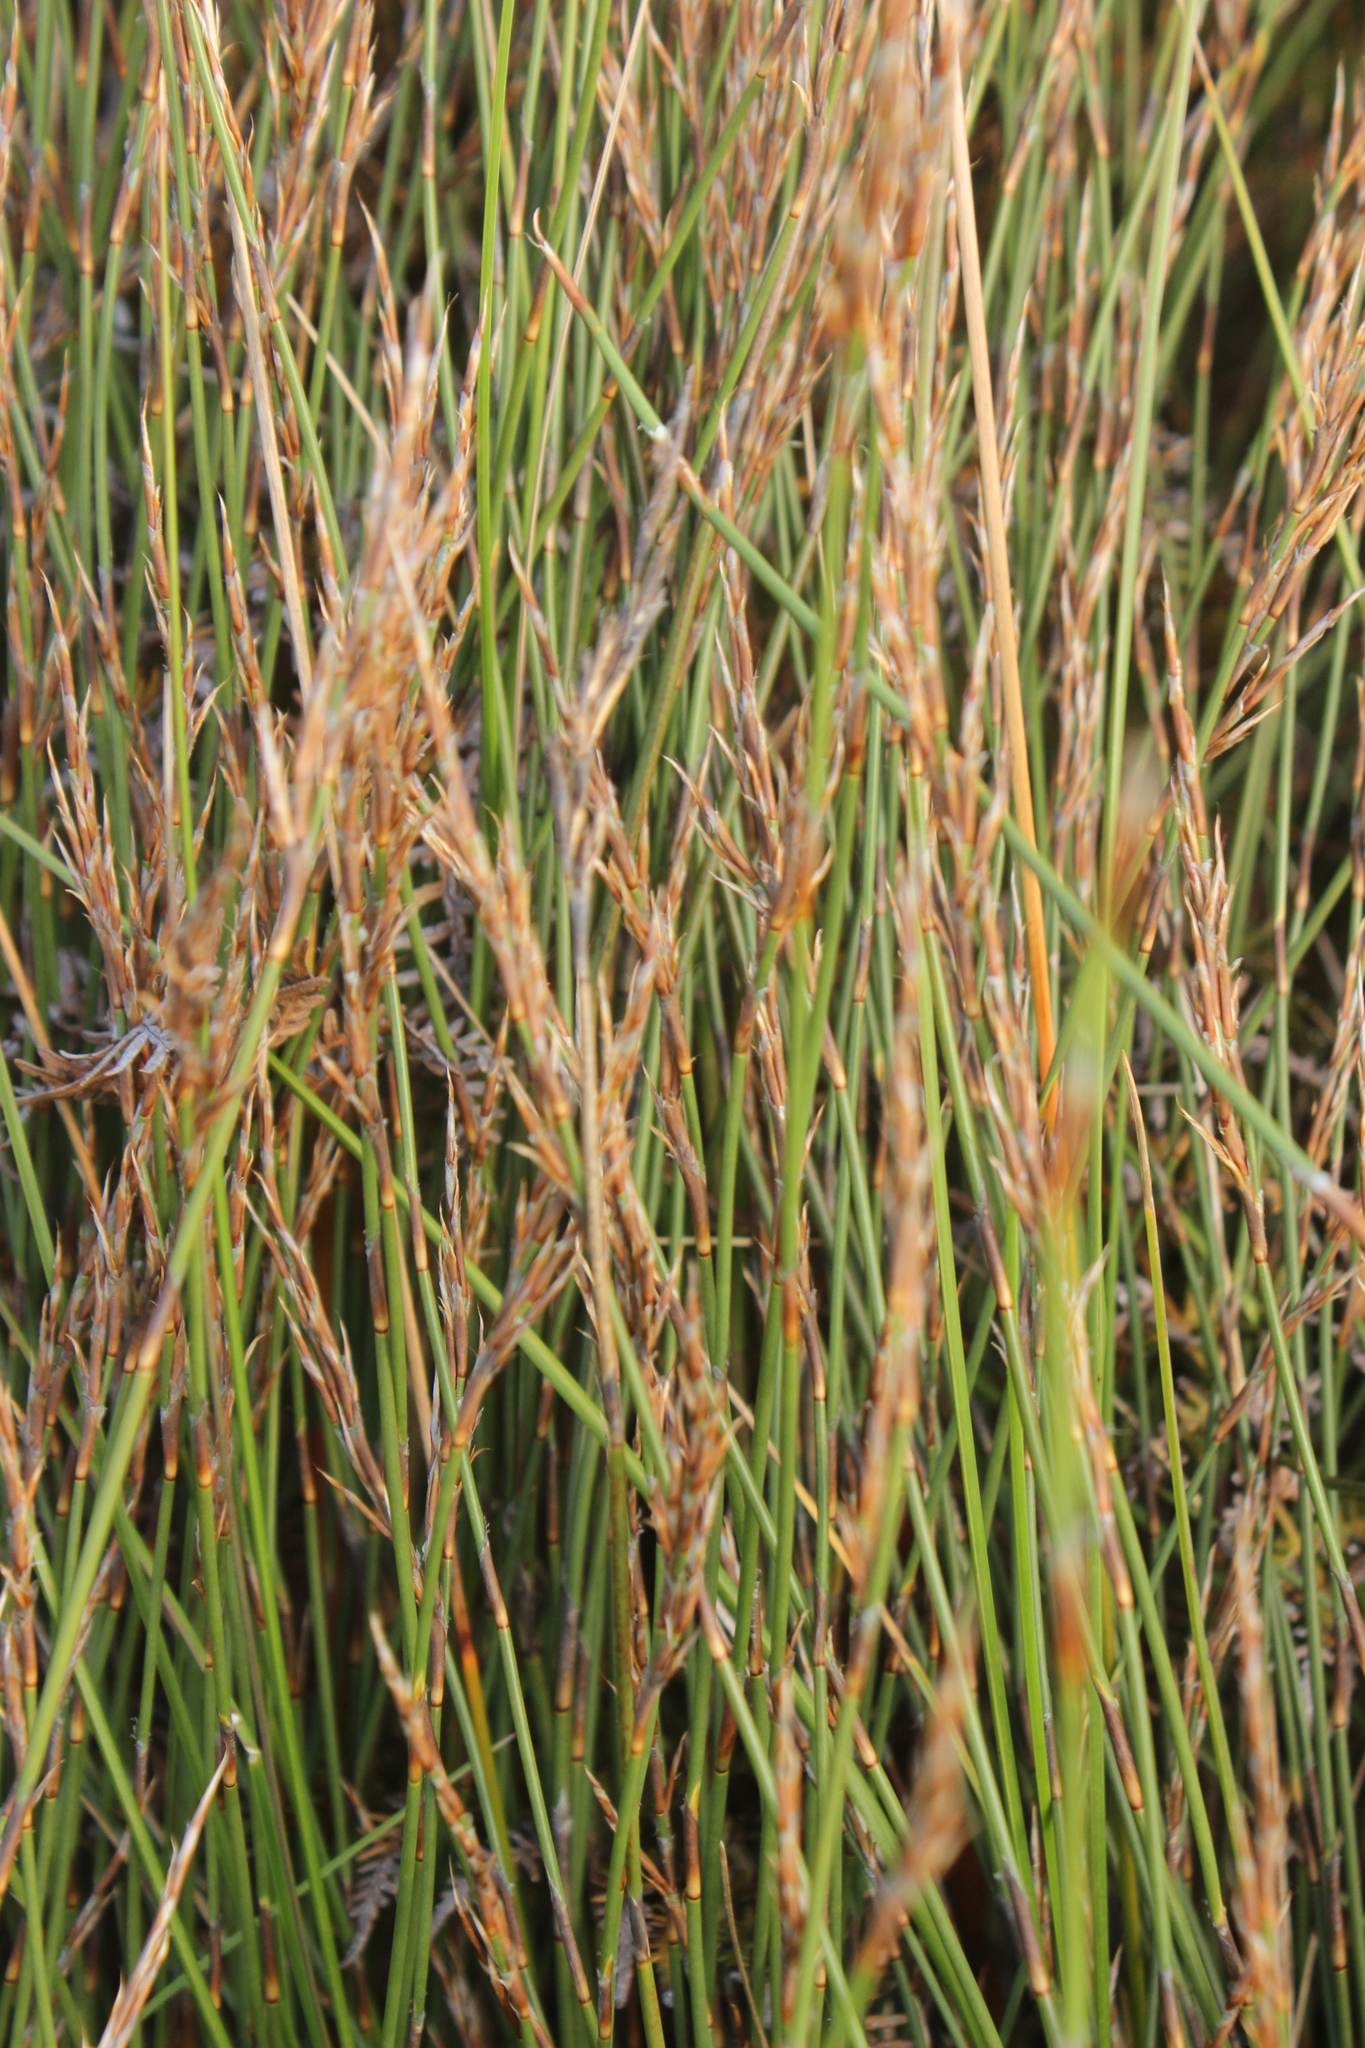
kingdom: Plantae
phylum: Tracheophyta
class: Liliopsida
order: Poales
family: Restionaceae
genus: Sporadanthus
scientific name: Sporadanthus traversii
